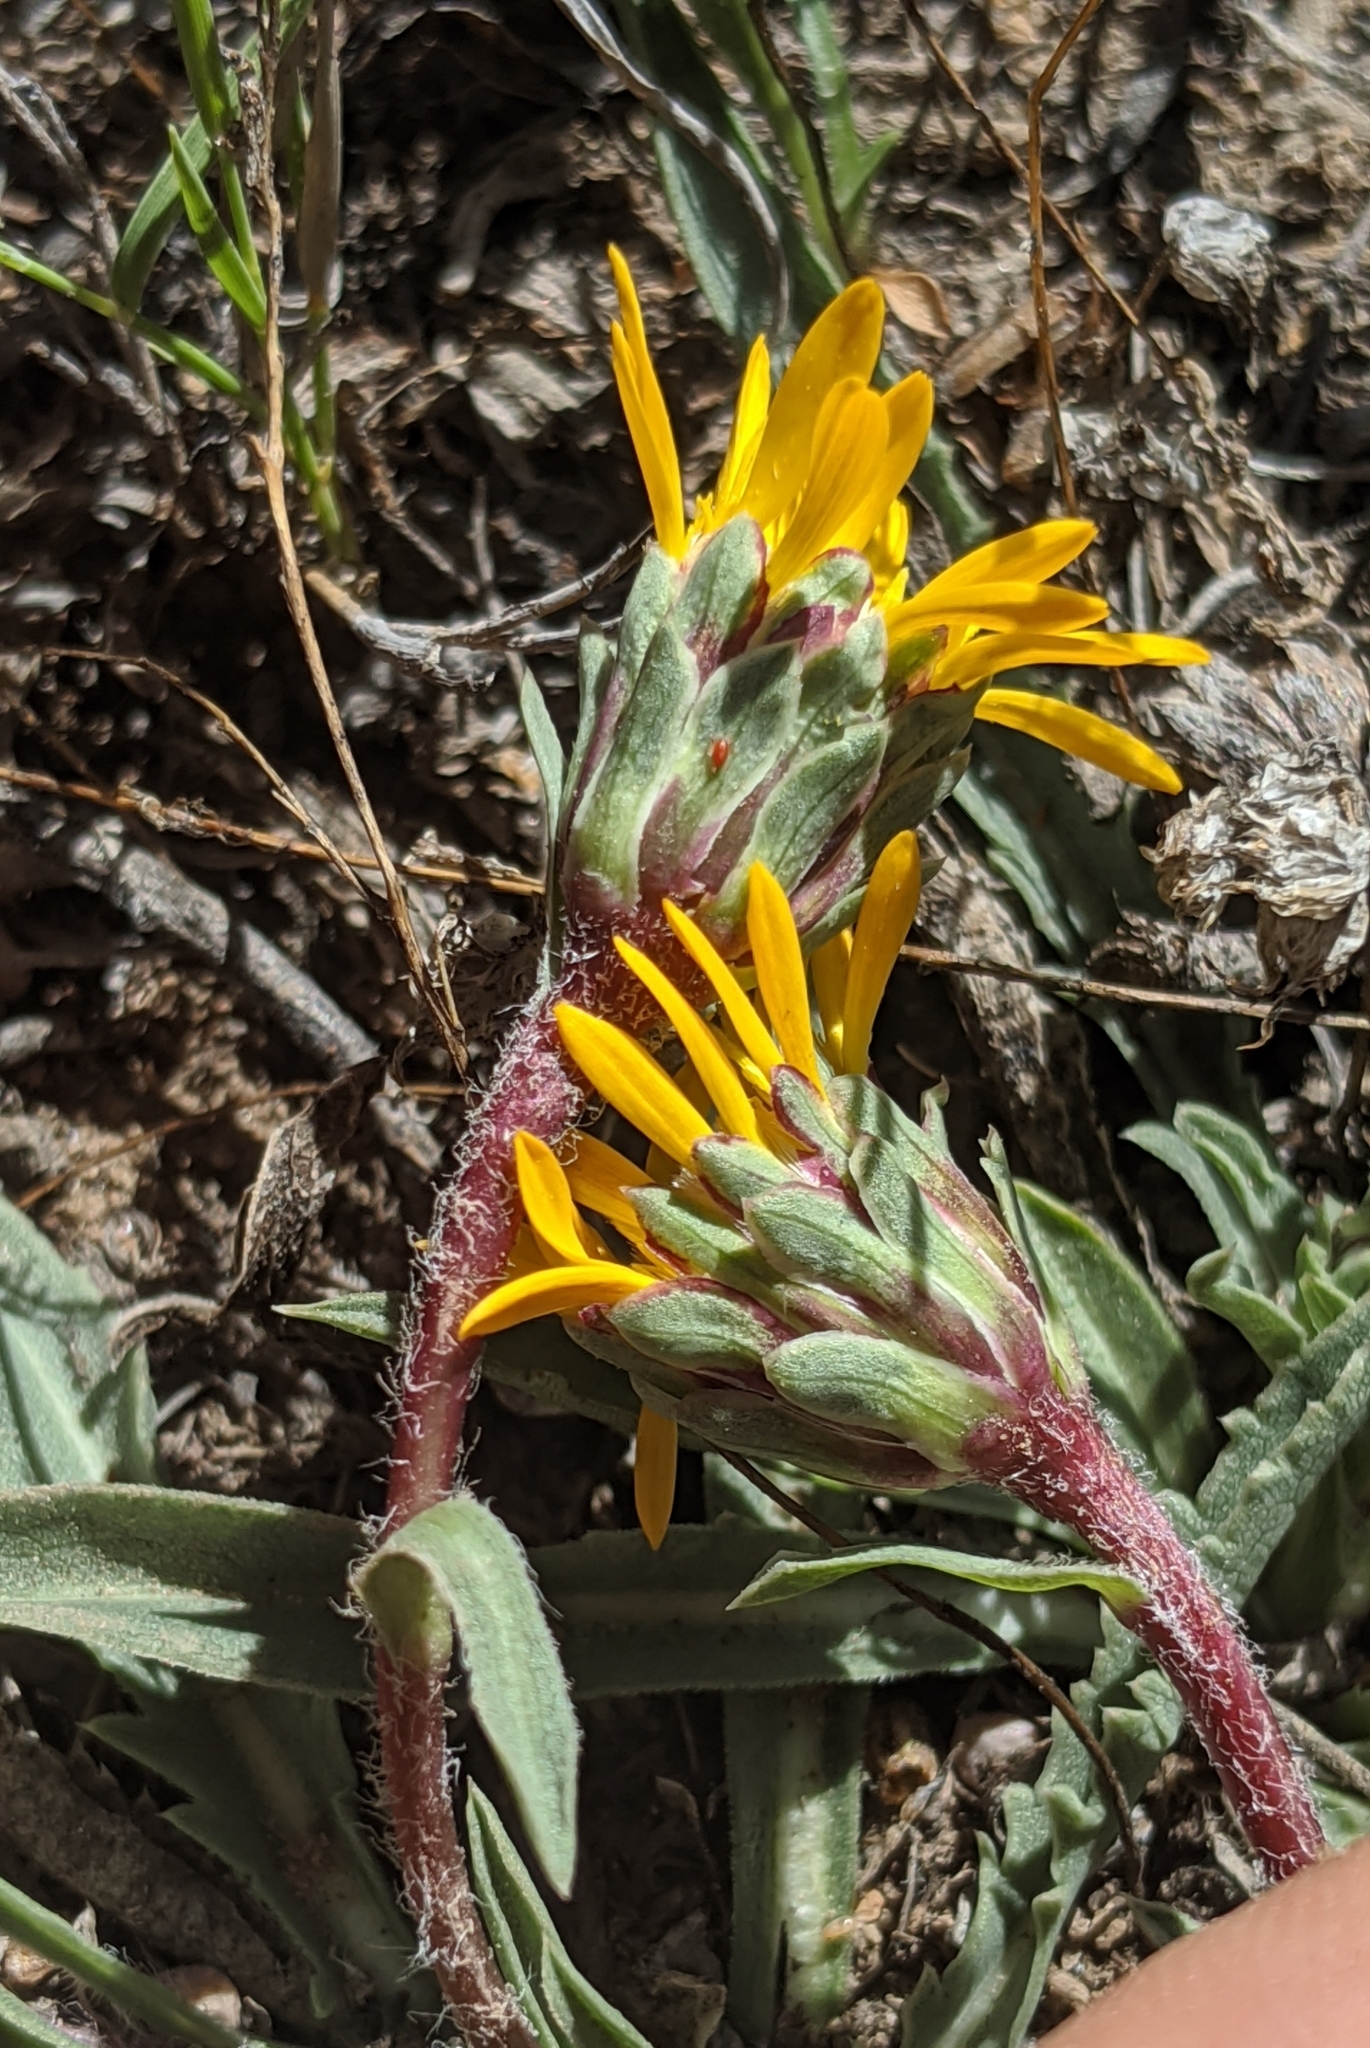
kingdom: Plantae
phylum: Tracheophyta
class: Magnoliopsida
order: Asterales
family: Asteraceae
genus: Pyrrocoma
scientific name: Pyrrocoma apargioides
